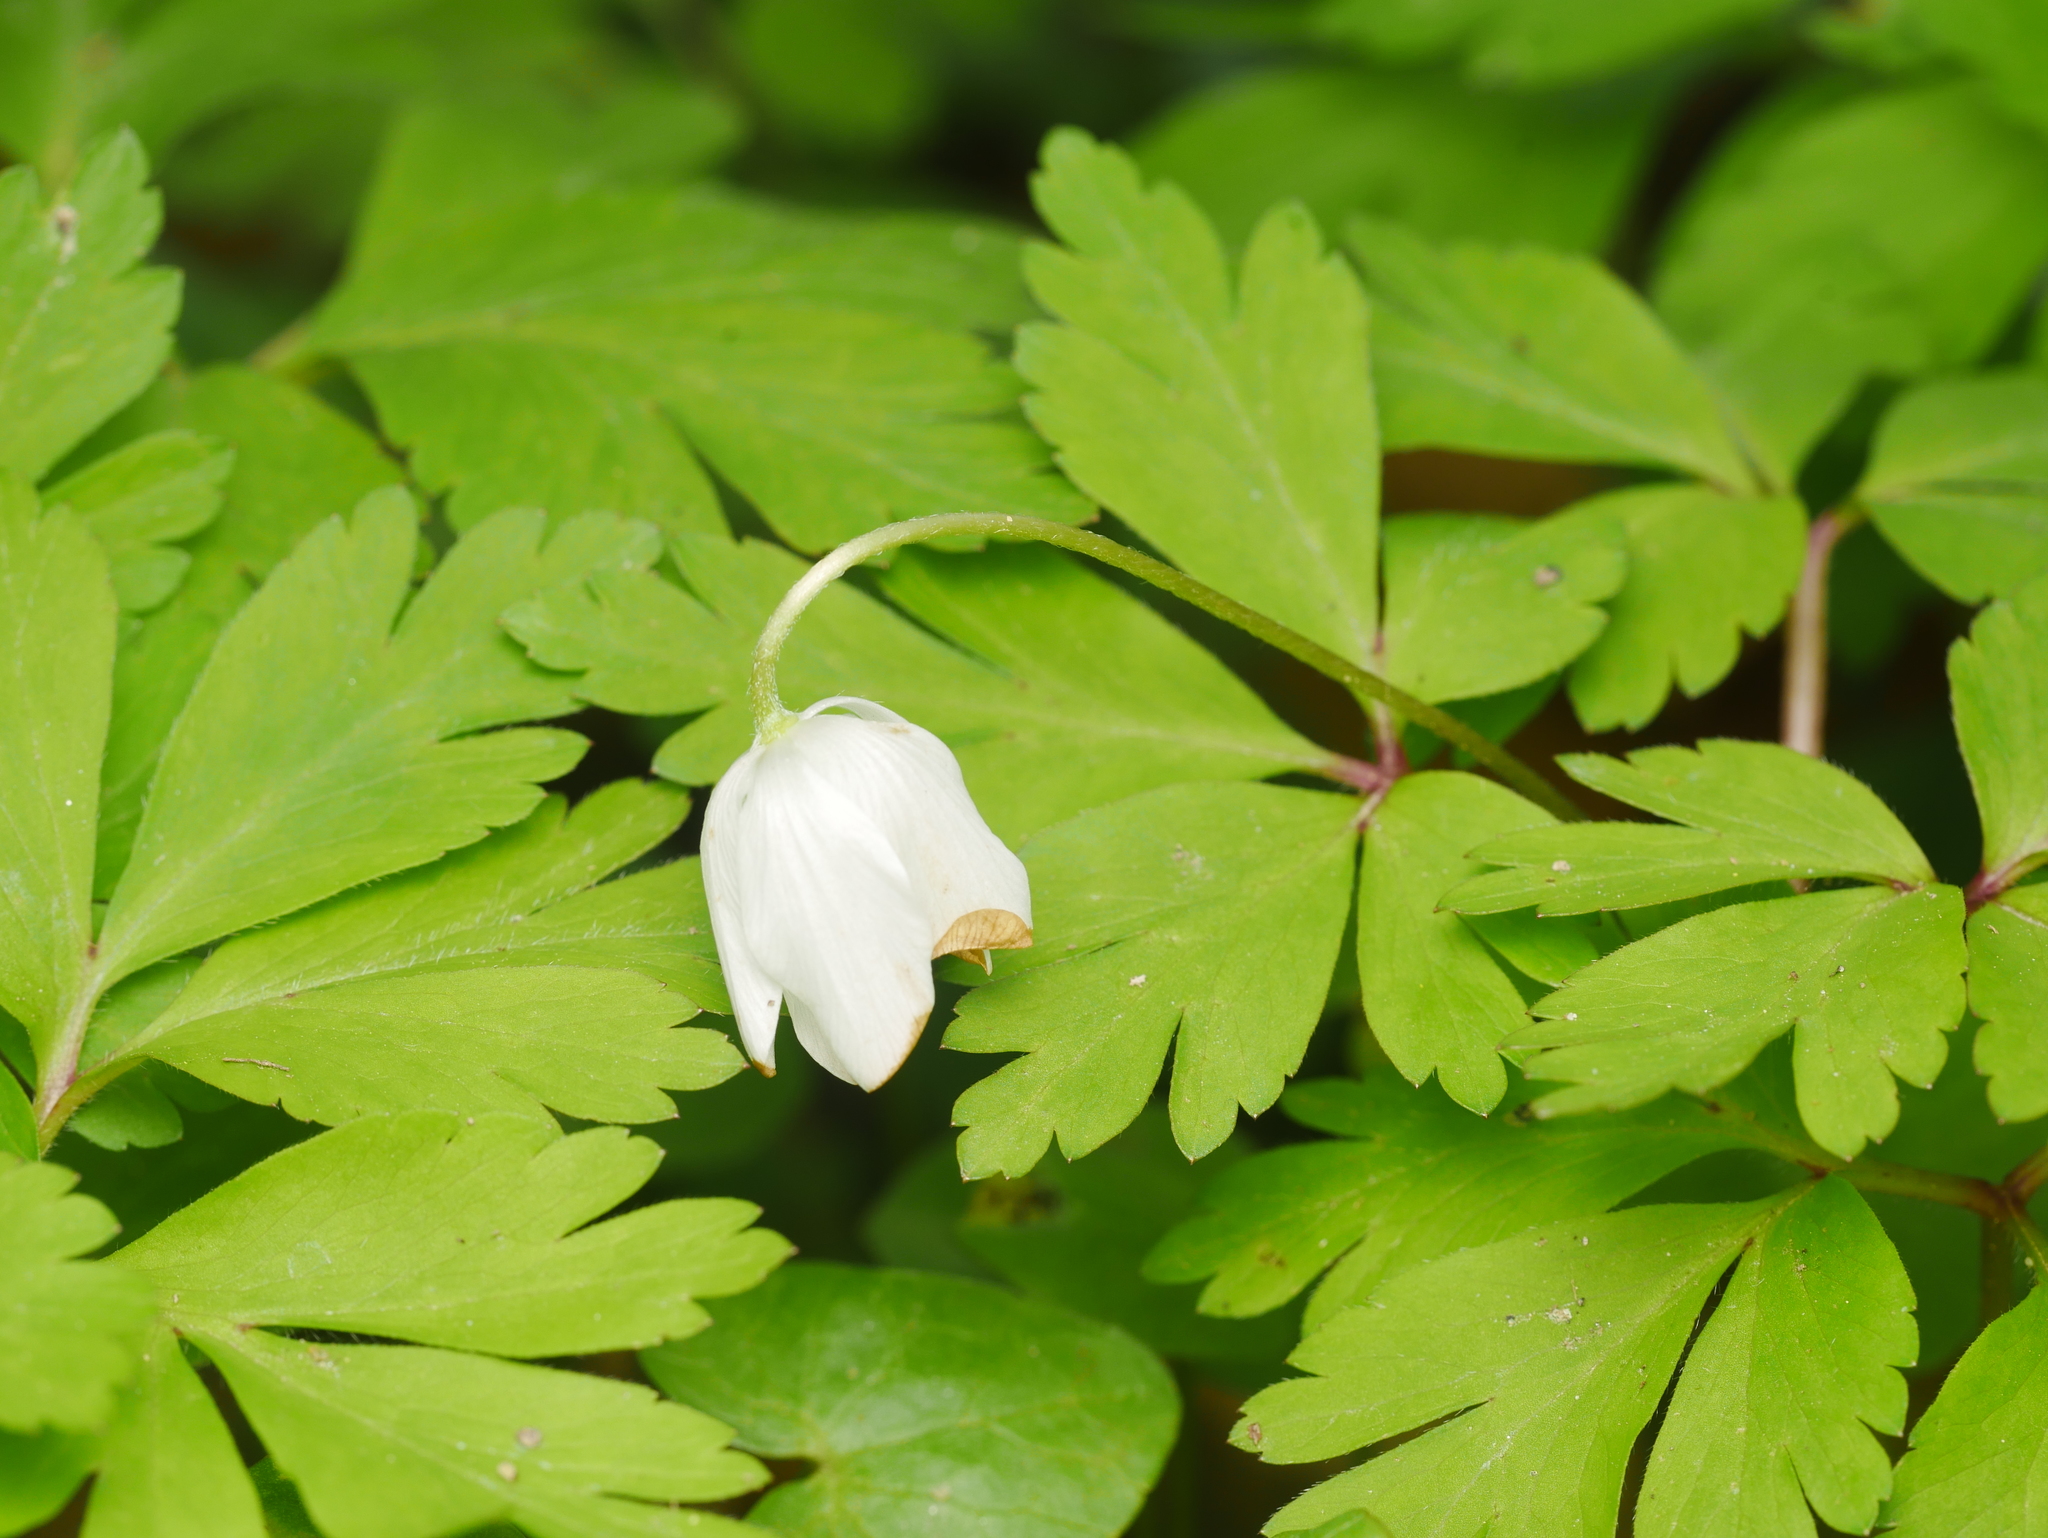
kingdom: Plantae
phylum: Tracheophyta
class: Magnoliopsida
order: Ranunculales
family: Ranunculaceae
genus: Anemone
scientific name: Anemone nemorosa
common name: Wood anemone
